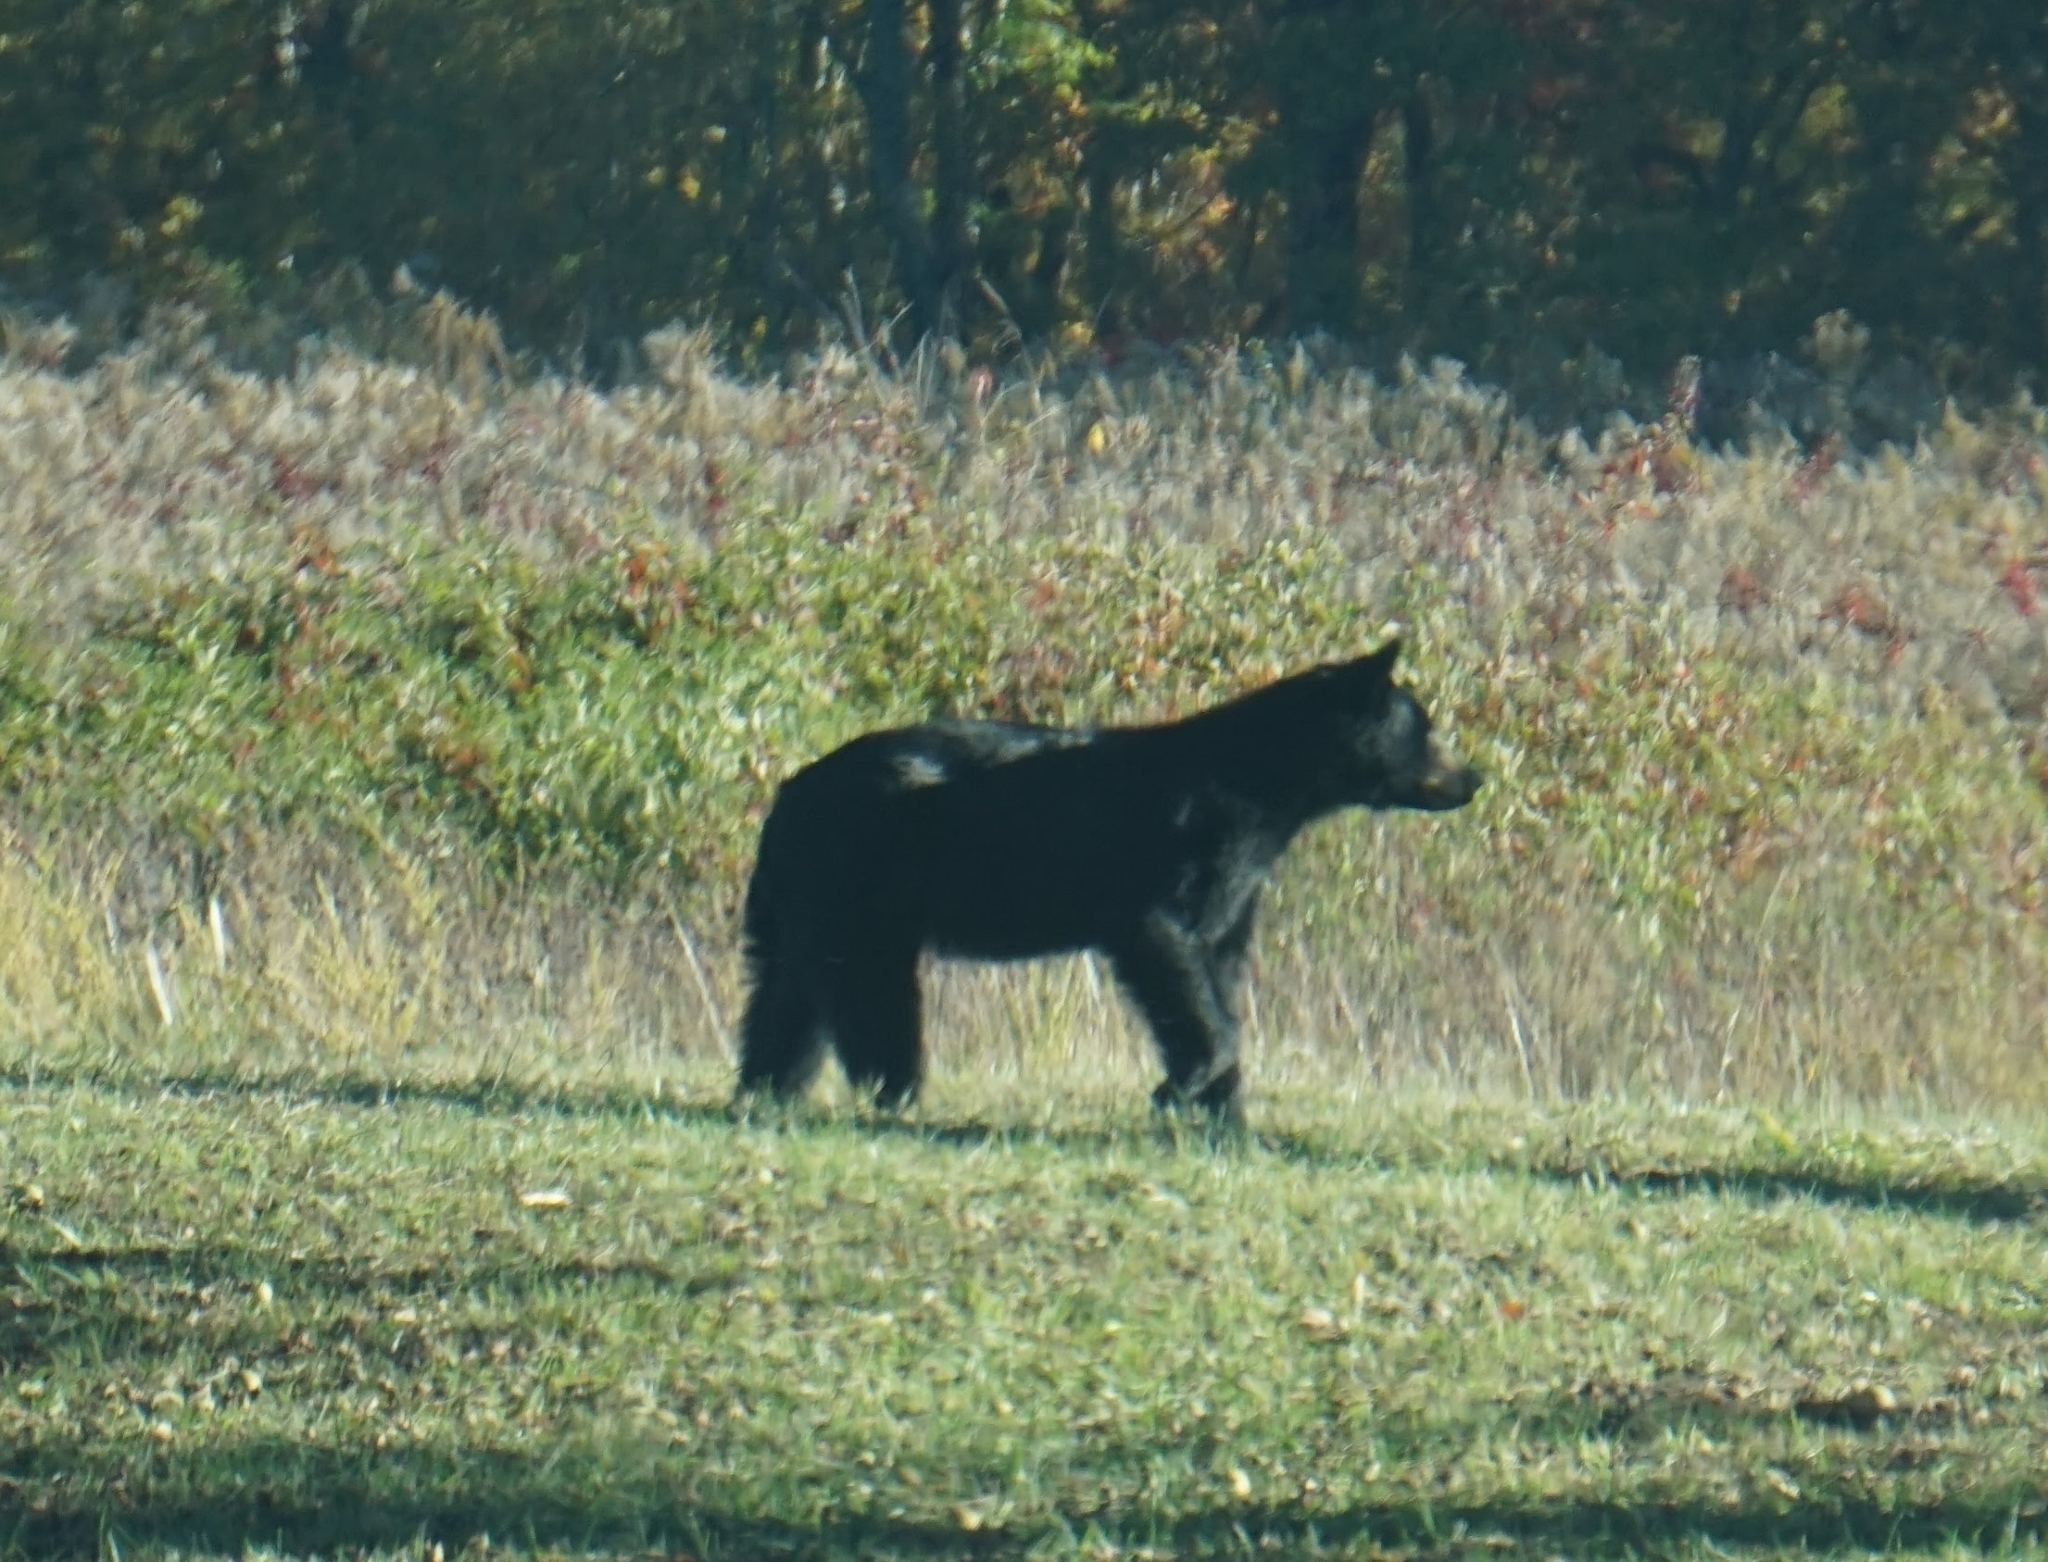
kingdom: Animalia
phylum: Chordata
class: Mammalia
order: Carnivora
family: Ursidae
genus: Ursus
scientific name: Ursus americanus
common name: American black bear
